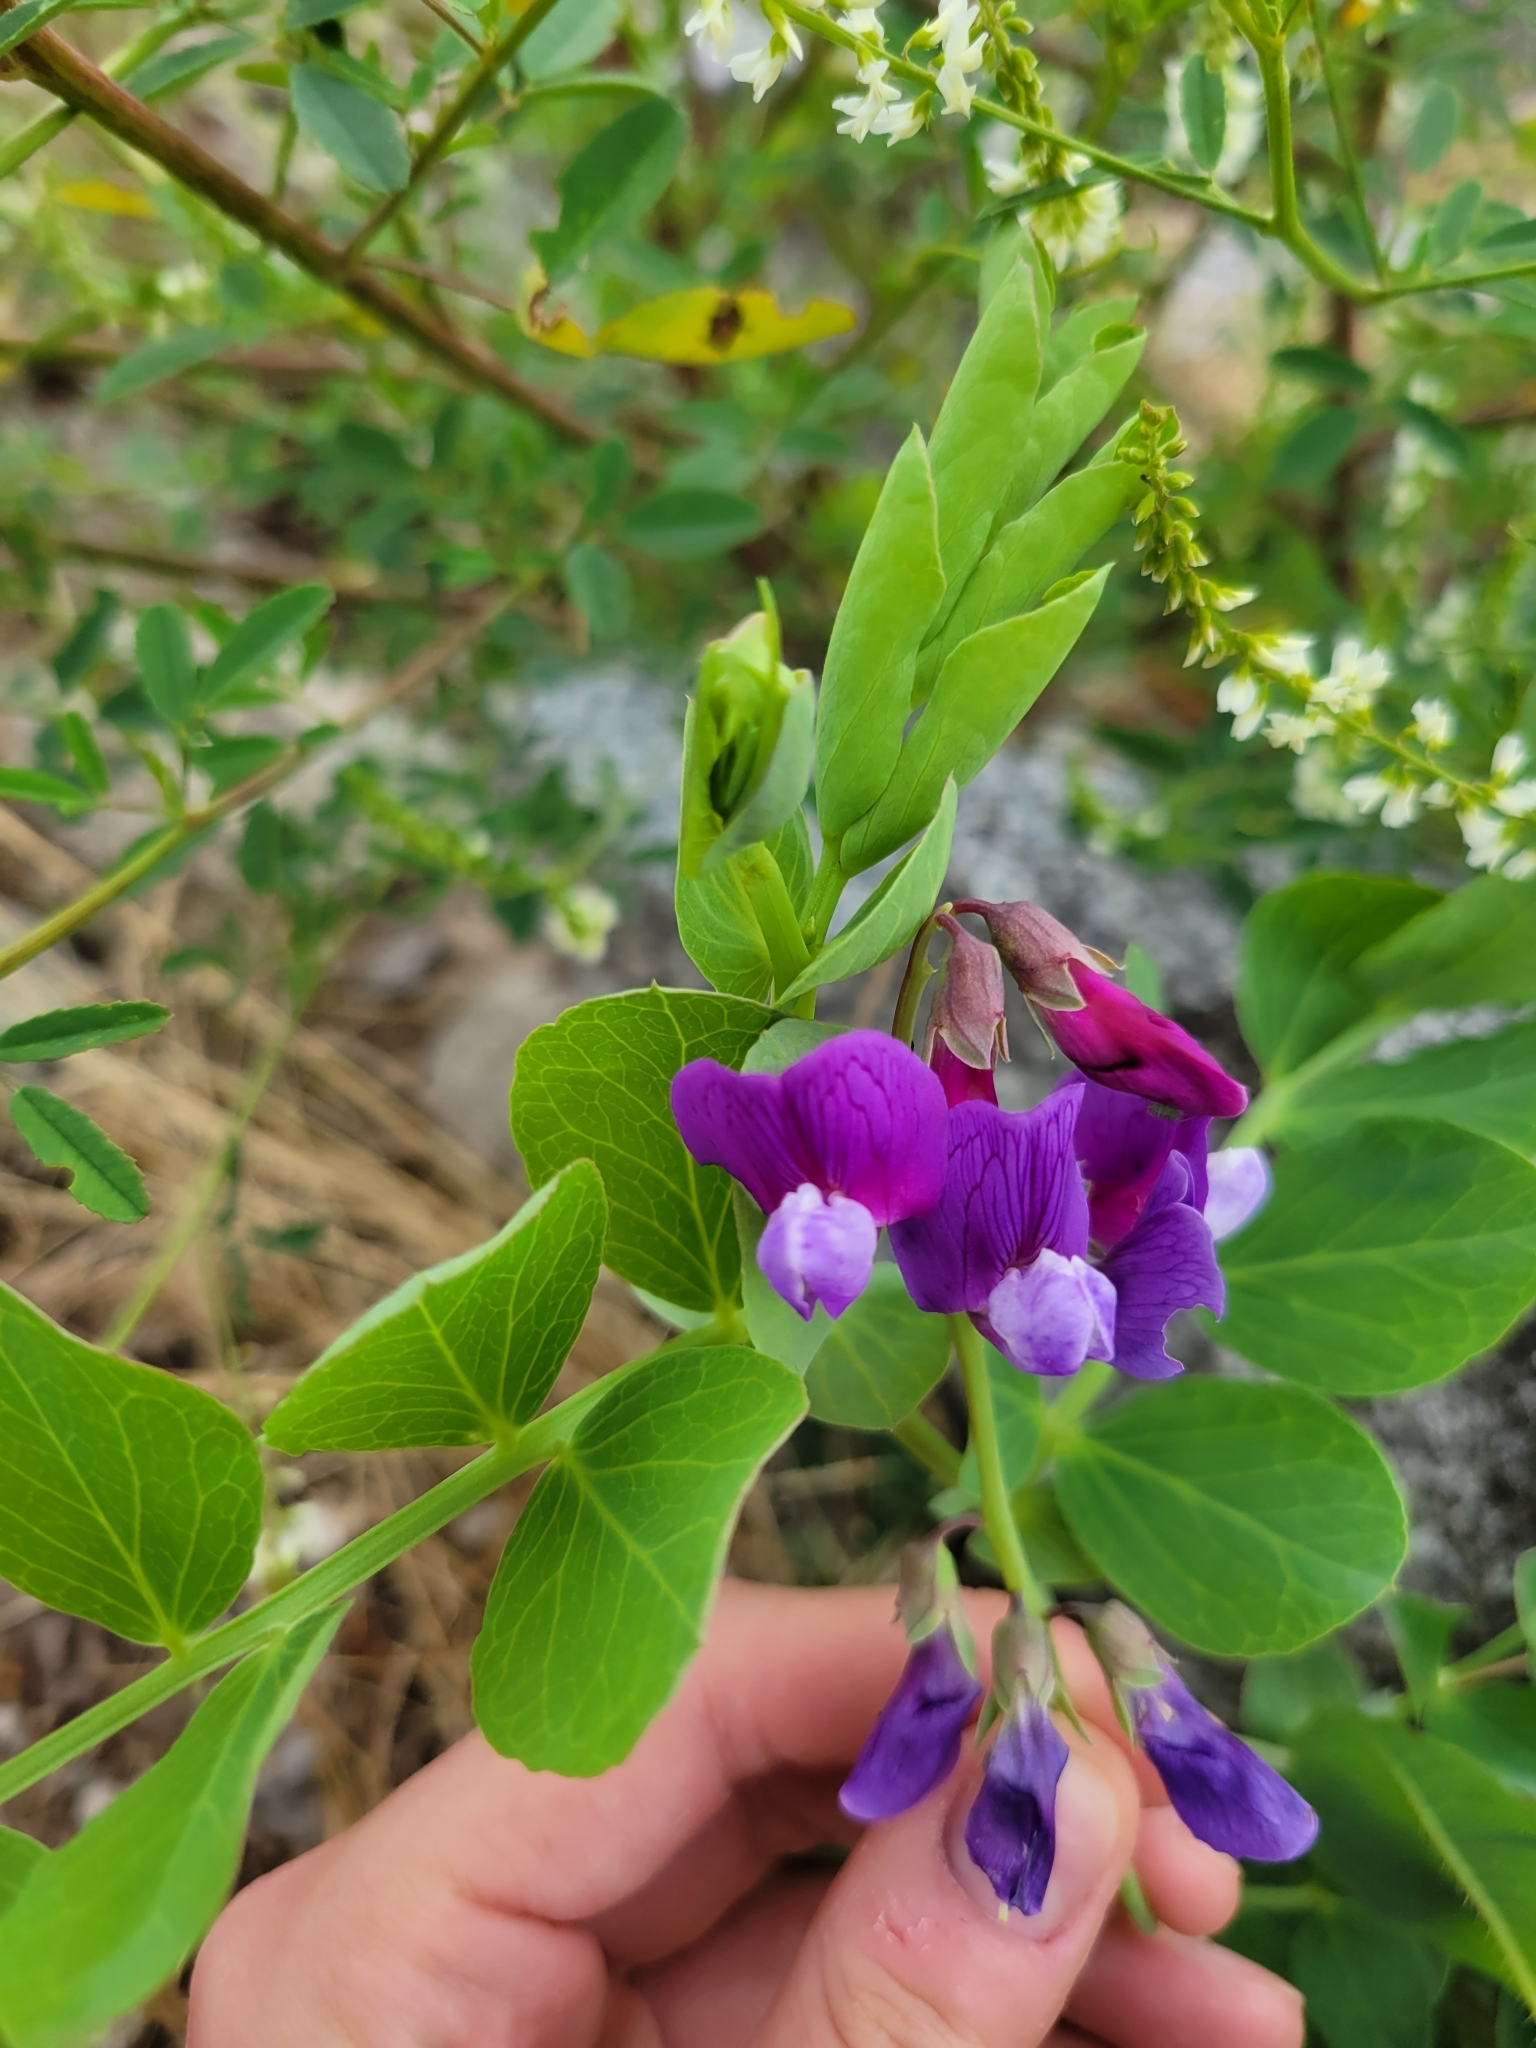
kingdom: Plantae
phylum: Tracheophyta
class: Magnoliopsida
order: Fabales
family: Fabaceae
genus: Lathyrus
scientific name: Lathyrus japonicus
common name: Sea pea
